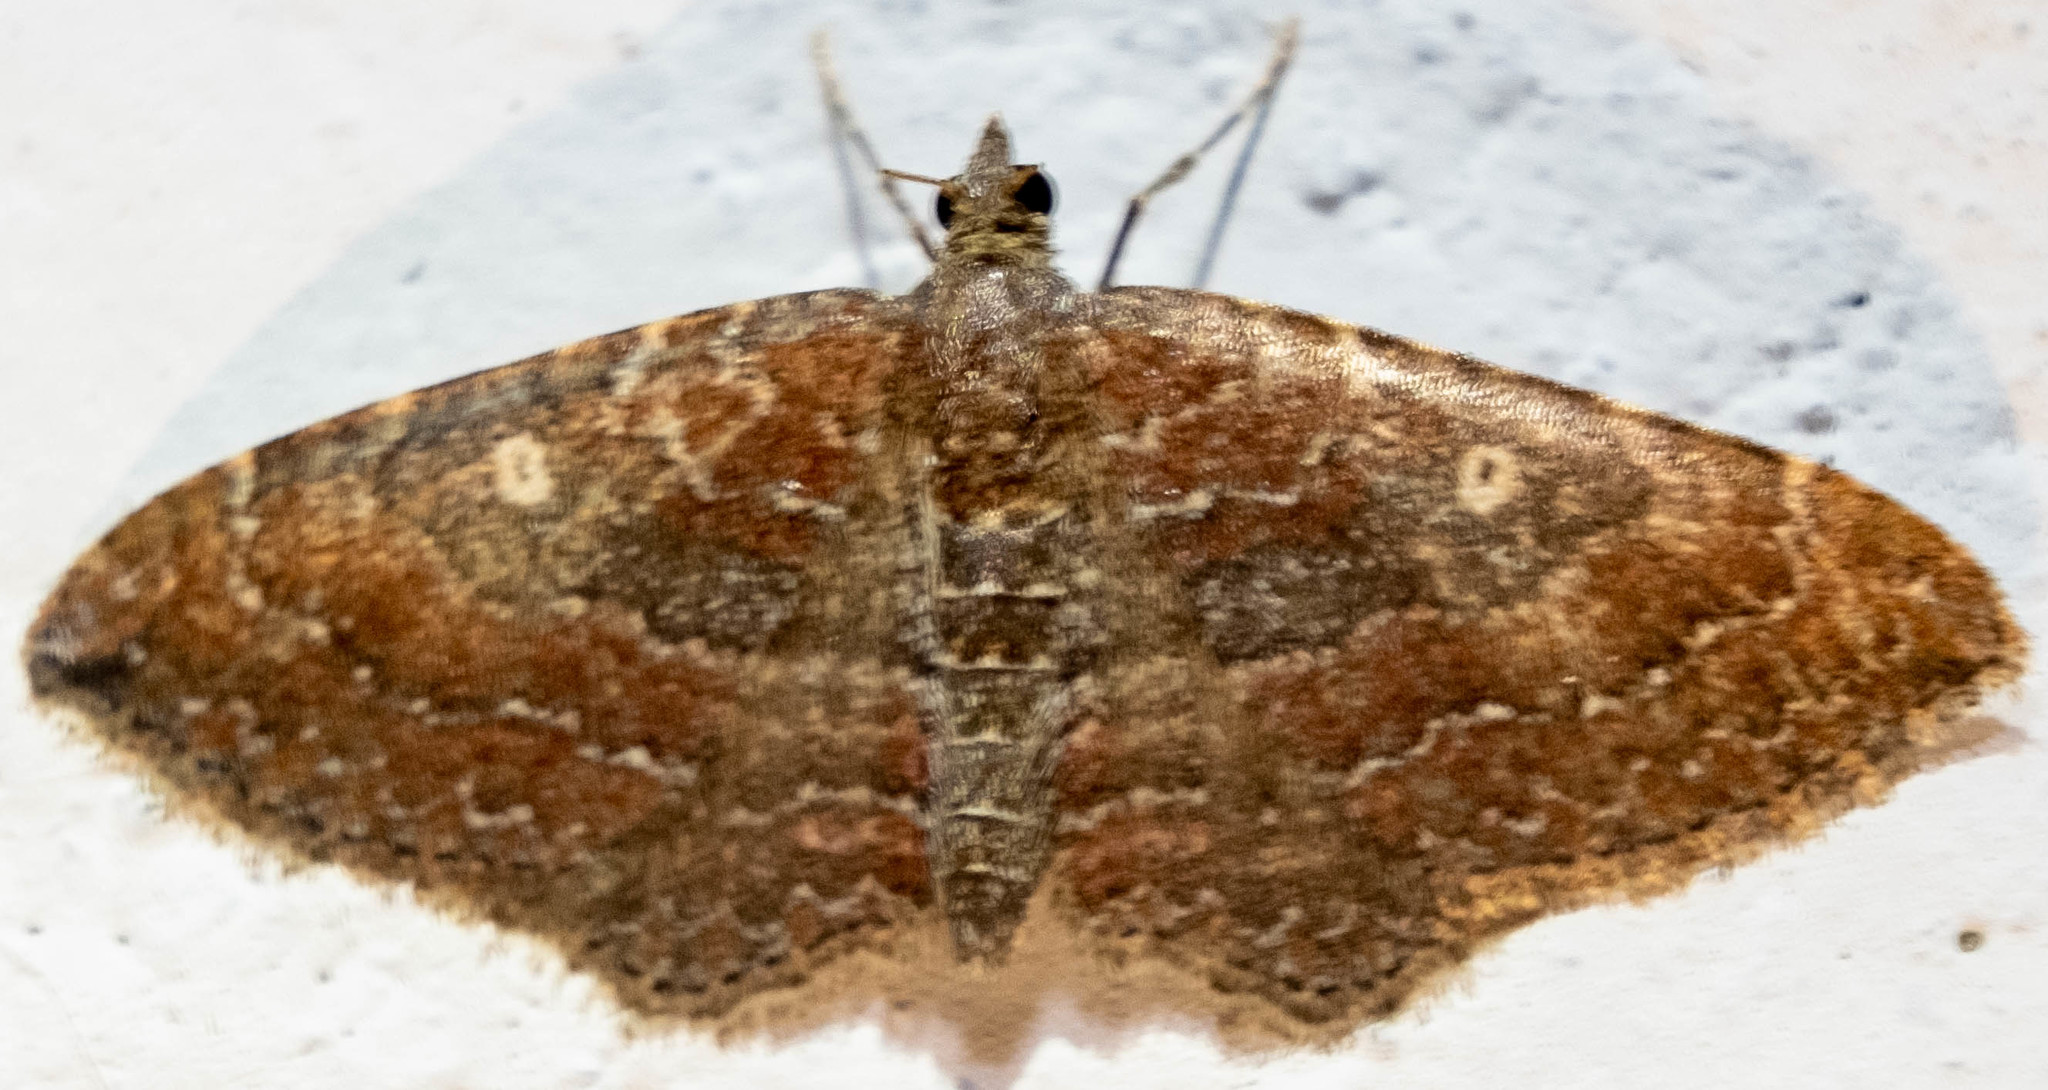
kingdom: Animalia
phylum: Arthropoda
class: Insecta
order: Lepidoptera
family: Geometridae
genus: Orthonama
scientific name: Orthonama obstipata
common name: The gem
